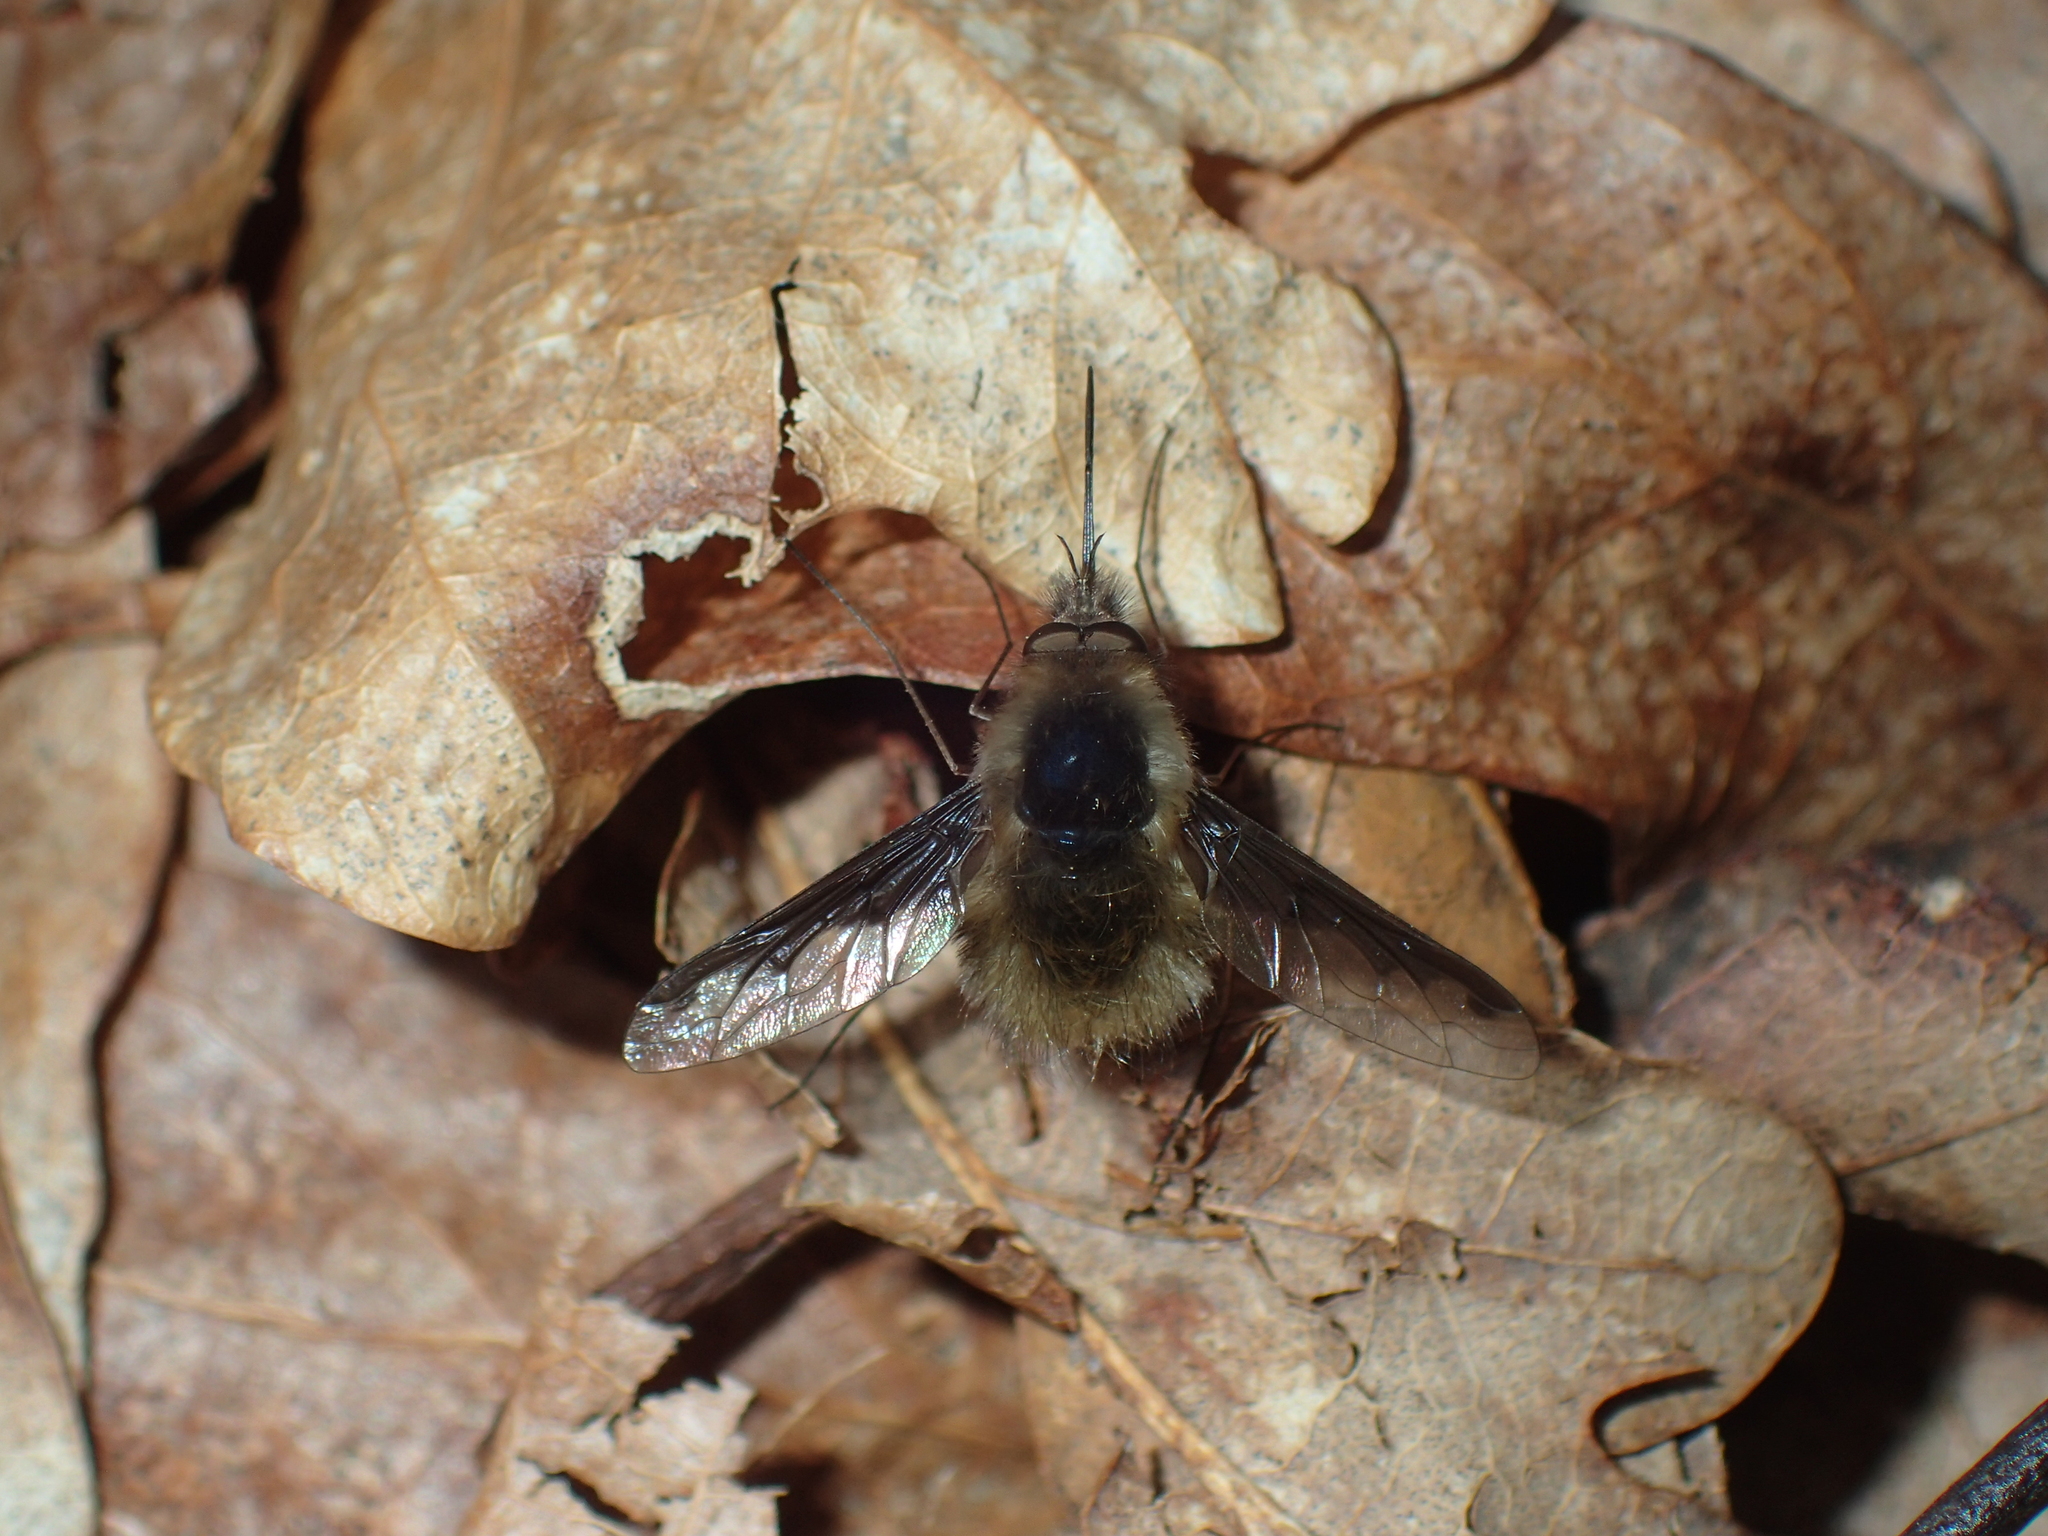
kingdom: Animalia
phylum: Arthropoda
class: Insecta
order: Diptera
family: Bombyliidae
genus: Bombylius
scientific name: Bombylius major
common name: Bee fly
